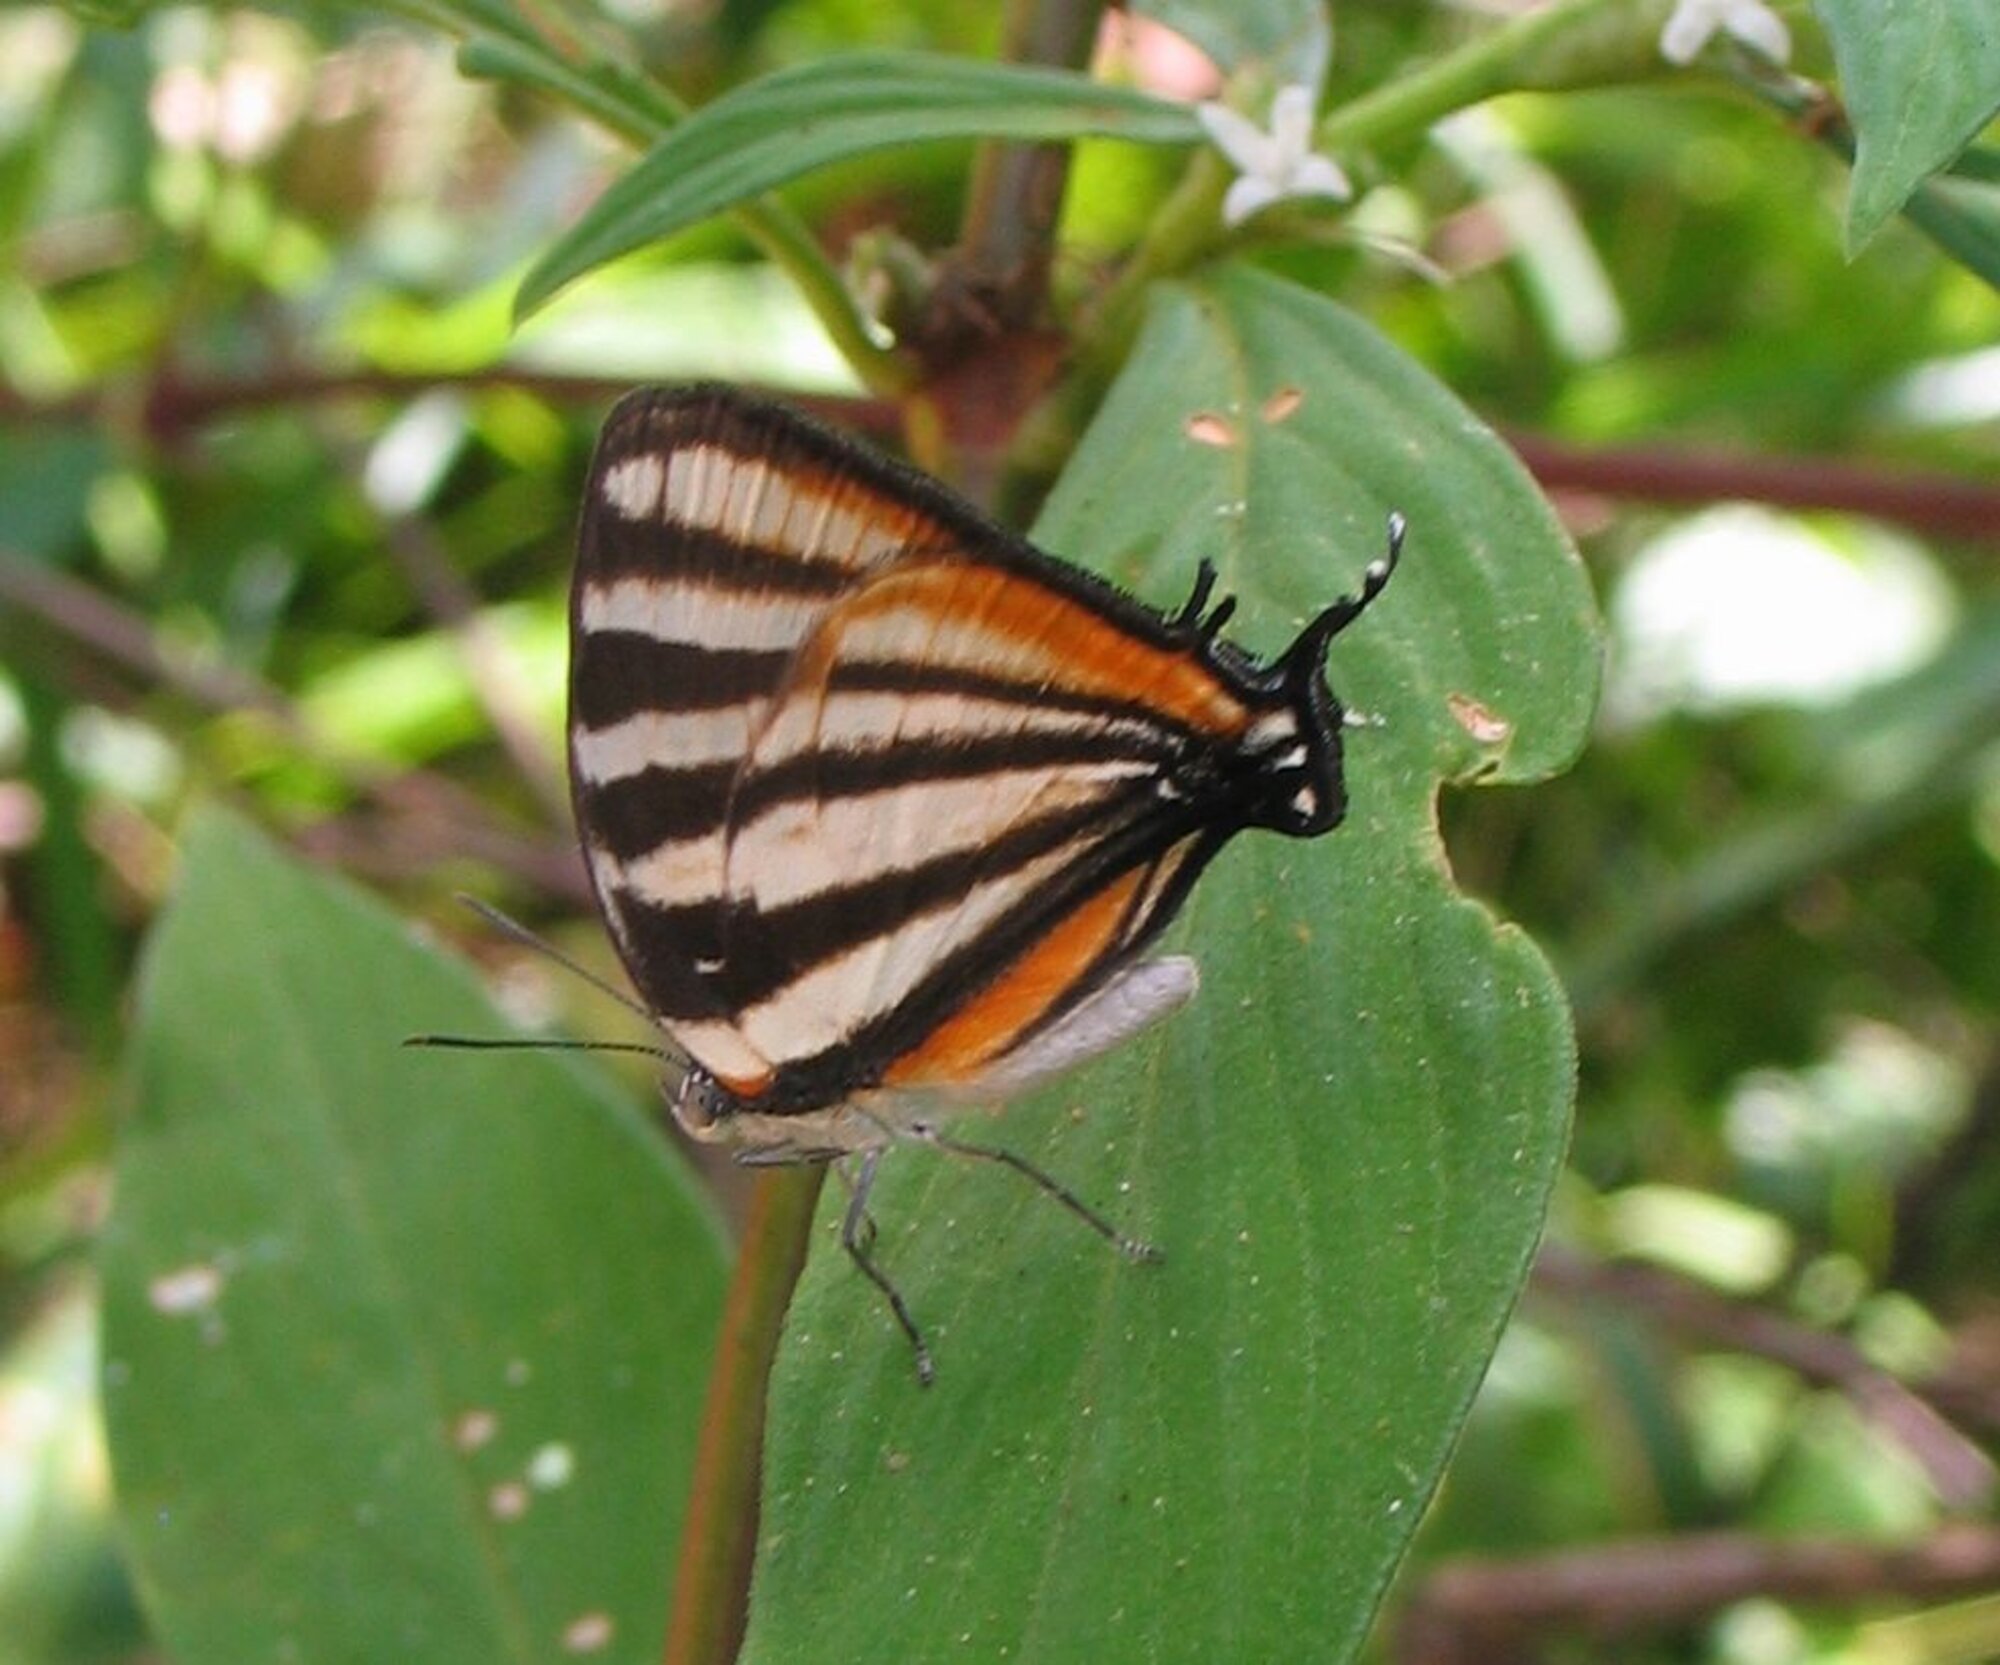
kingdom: Animalia
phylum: Arthropoda
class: Insecta
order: Lepidoptera
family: Lycaenidae
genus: Arawacus
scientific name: Arawacus togarna
